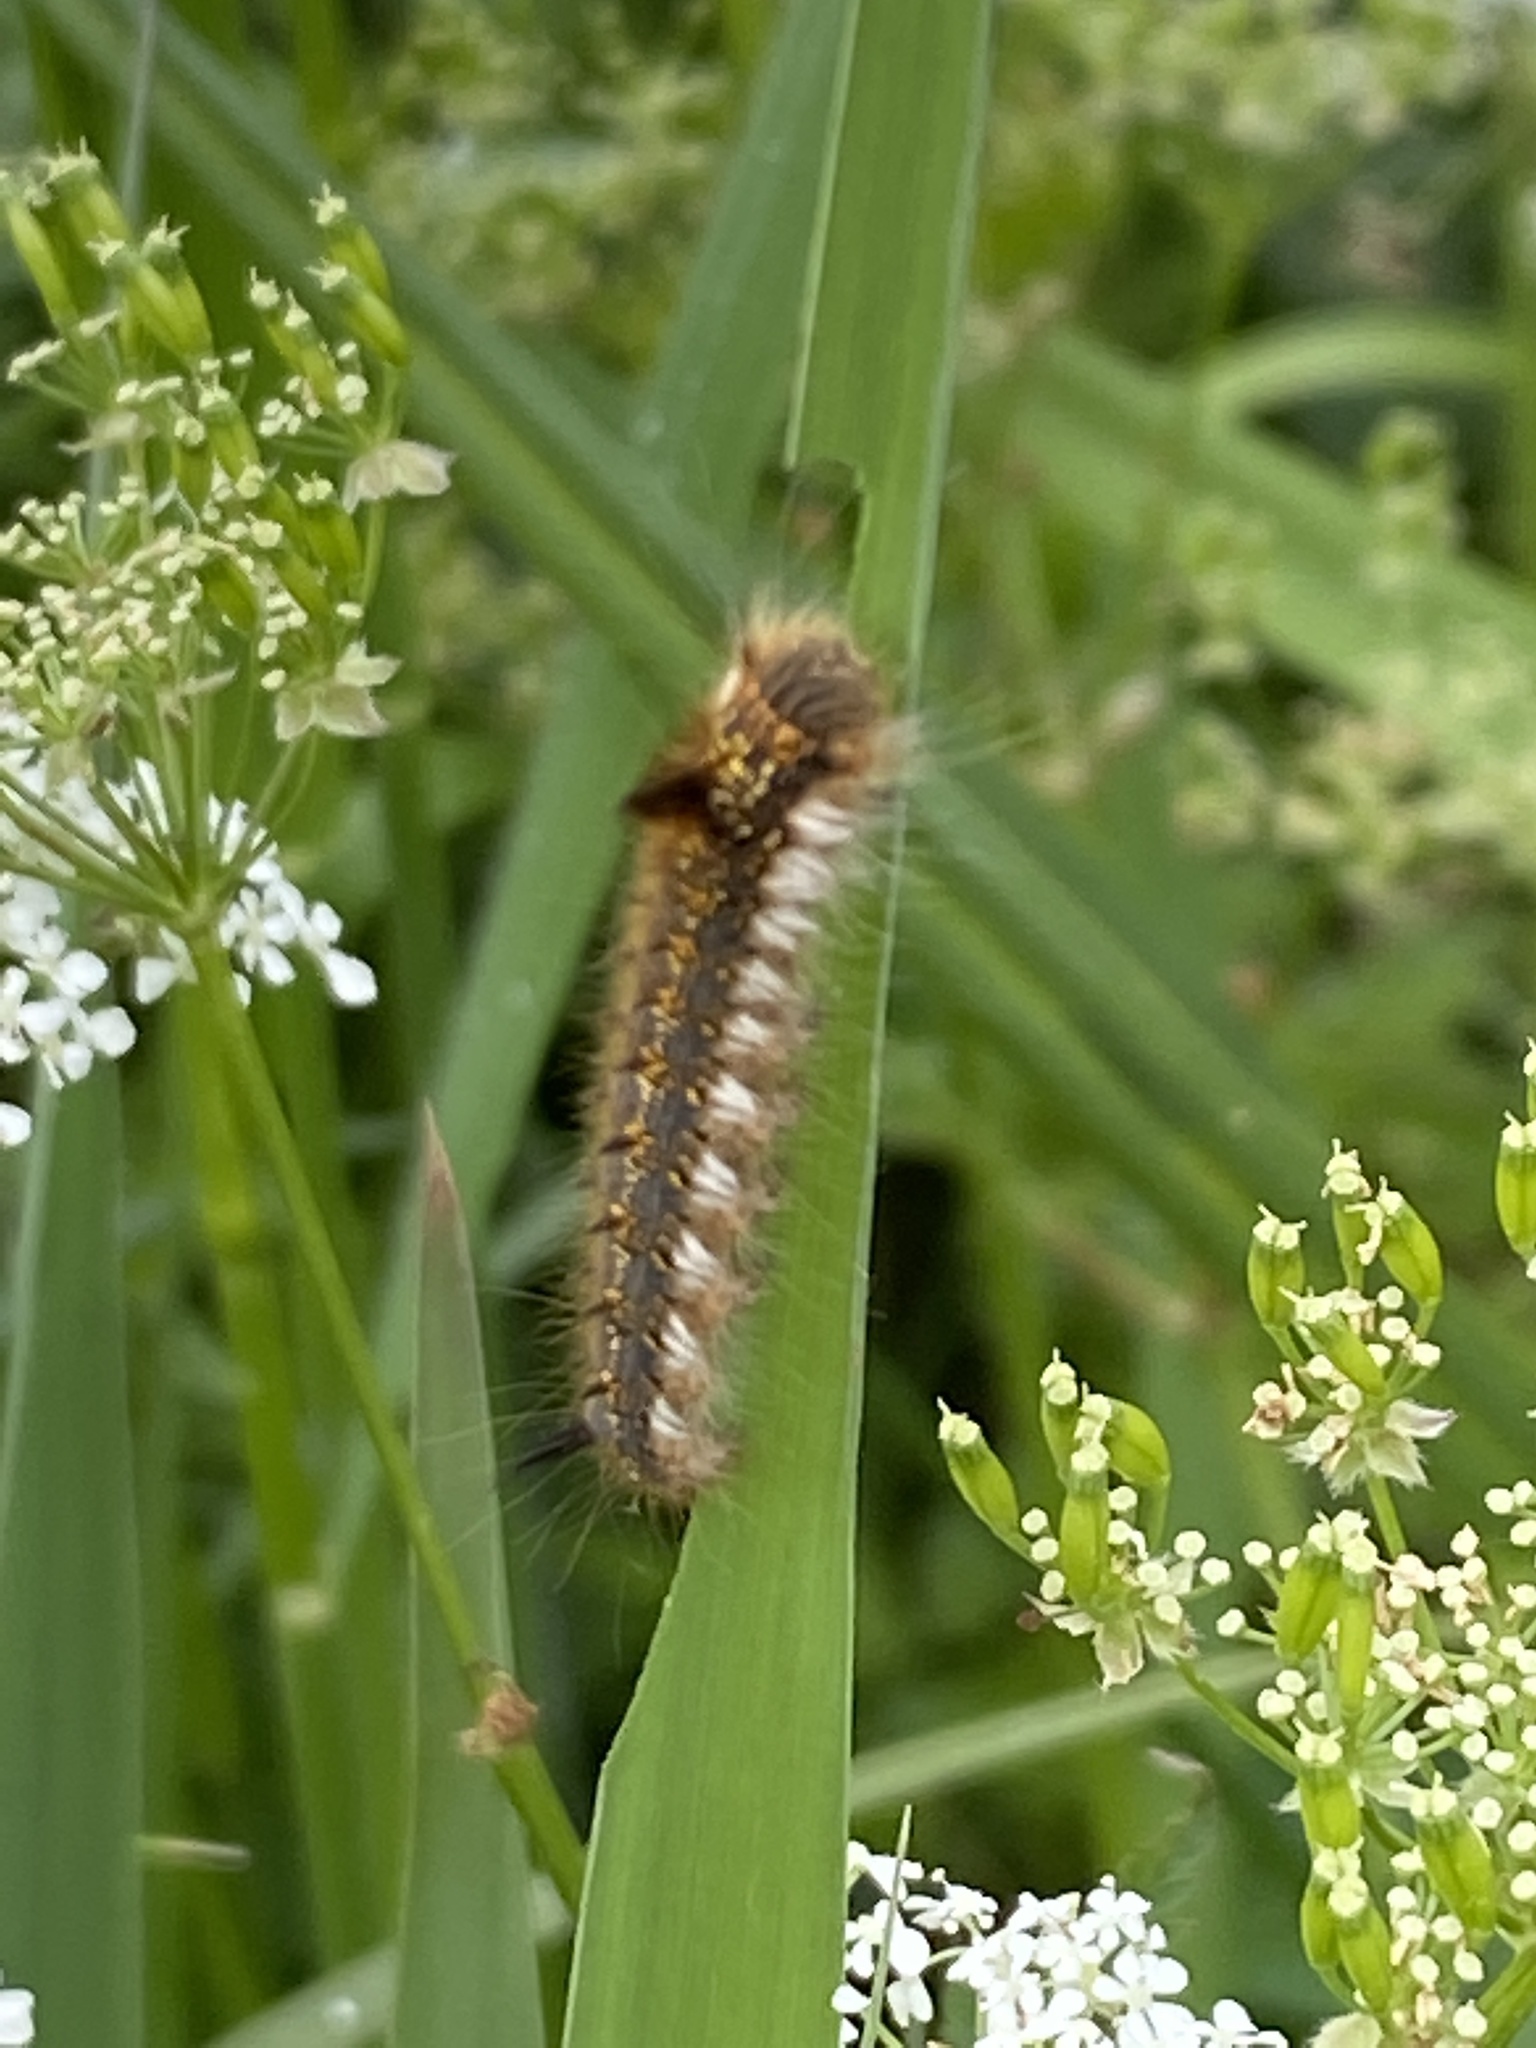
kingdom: Animalia
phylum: Arthropoda
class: Insecta
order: Lepidoptera
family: Lasiocampidae
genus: Euthrix
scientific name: Euthrix potatoria
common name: Drinker
